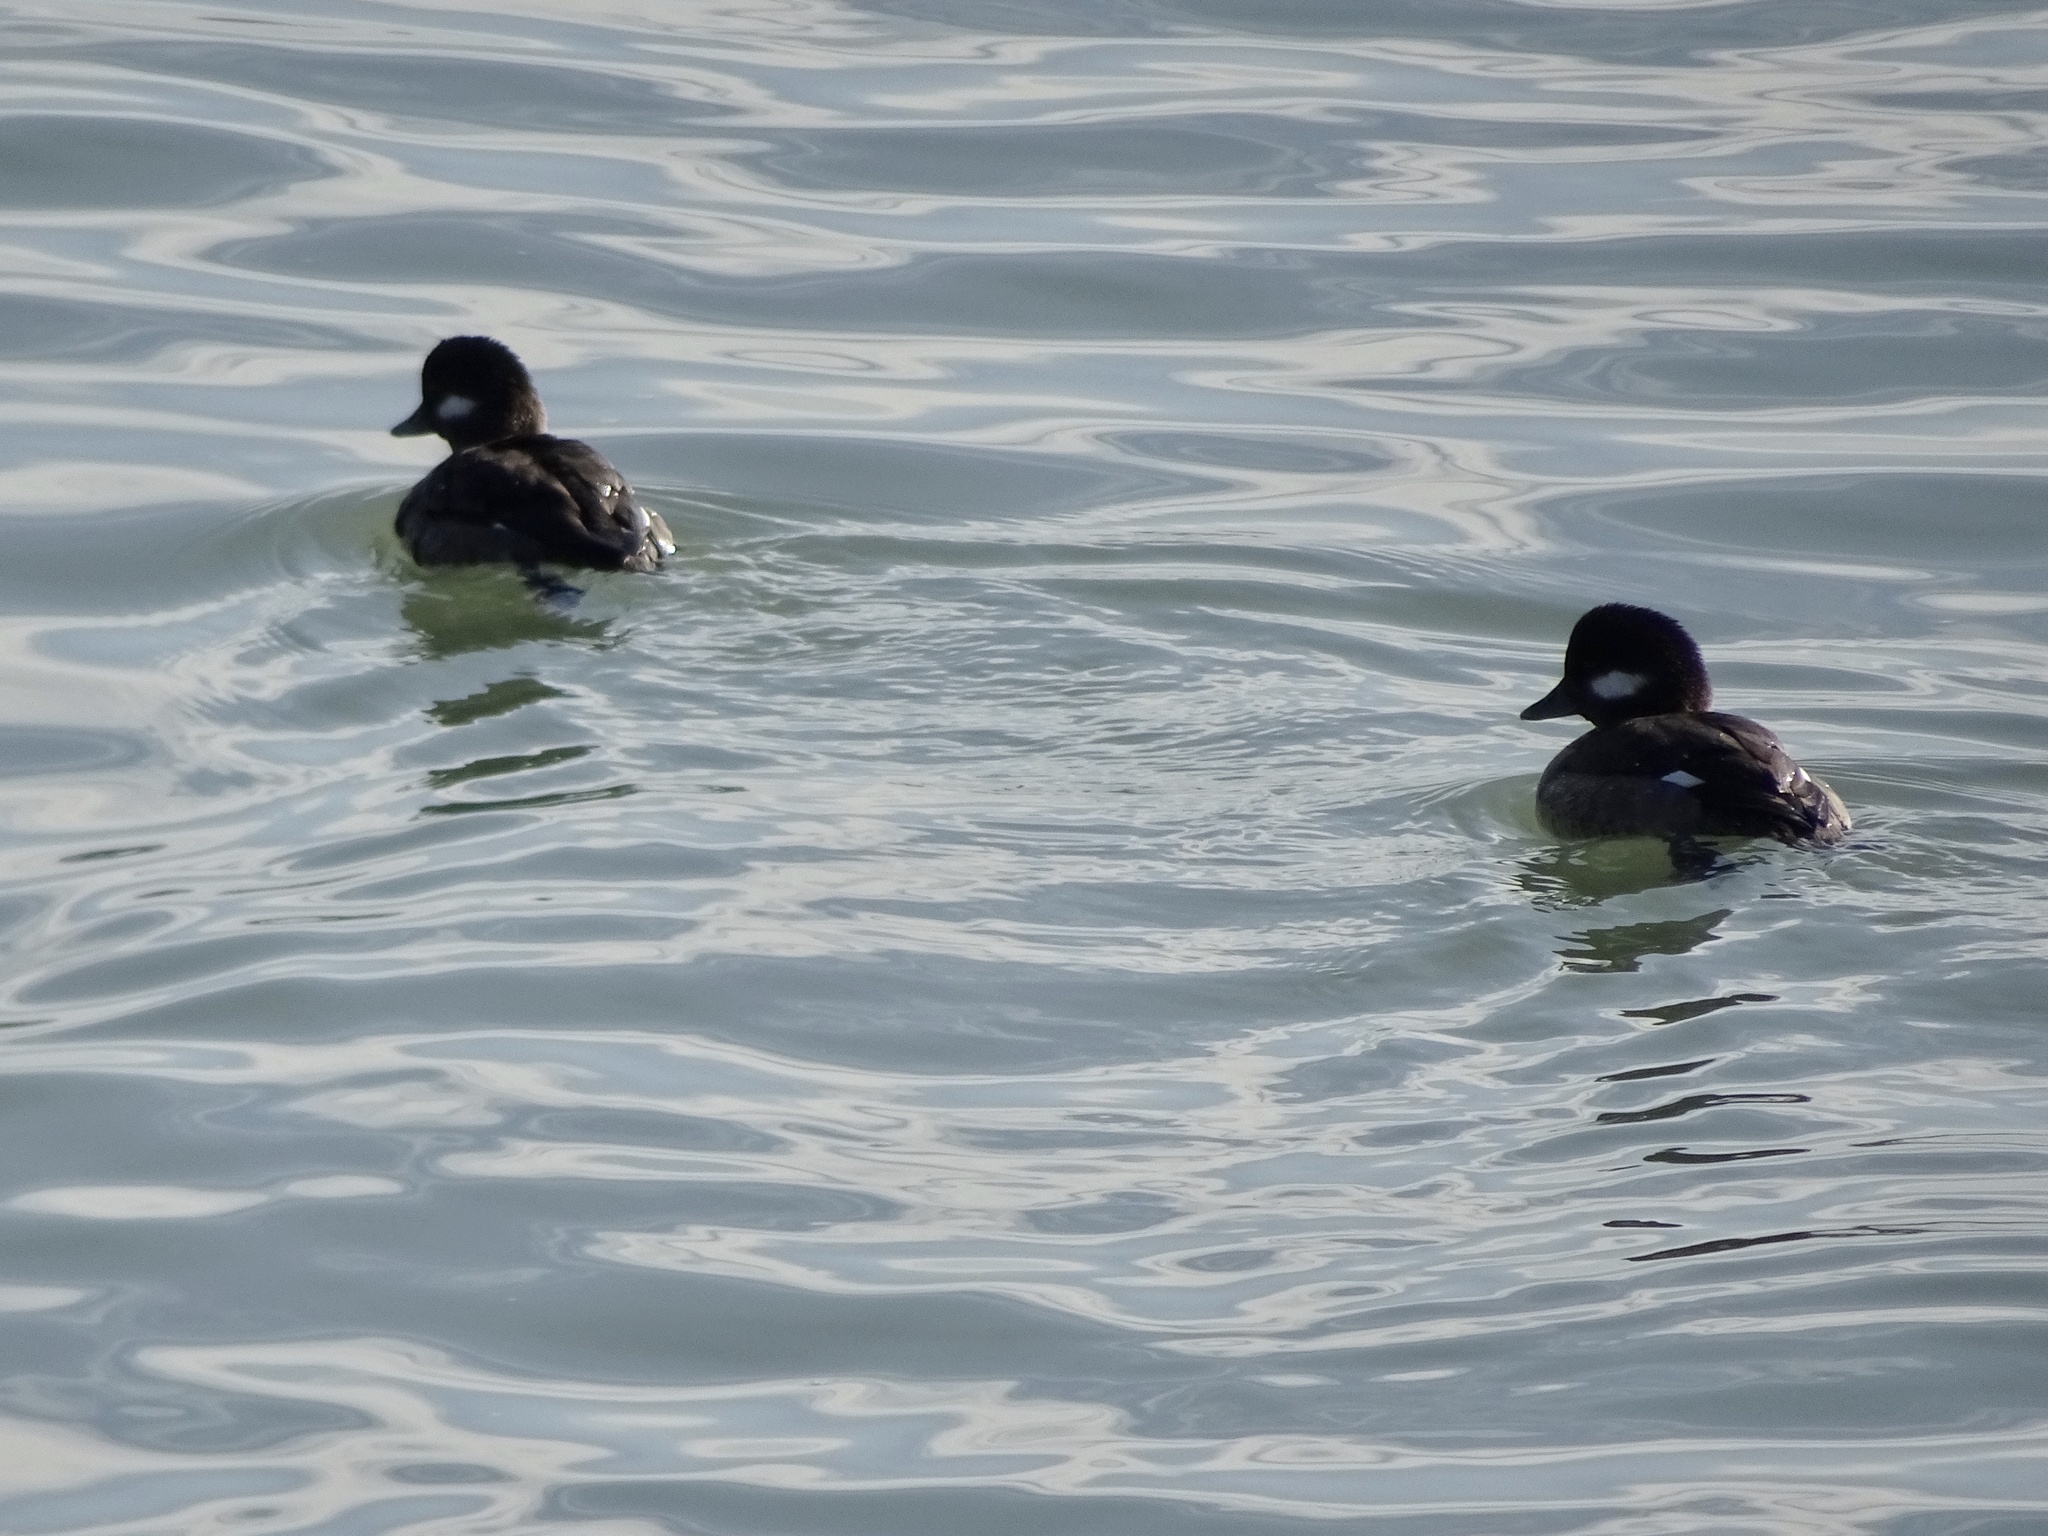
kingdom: Animalia
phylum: Chordata
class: Aves
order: Anseriformes
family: Anatidae
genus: Bucephala
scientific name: Bucephala albeola
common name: Bufflehead
